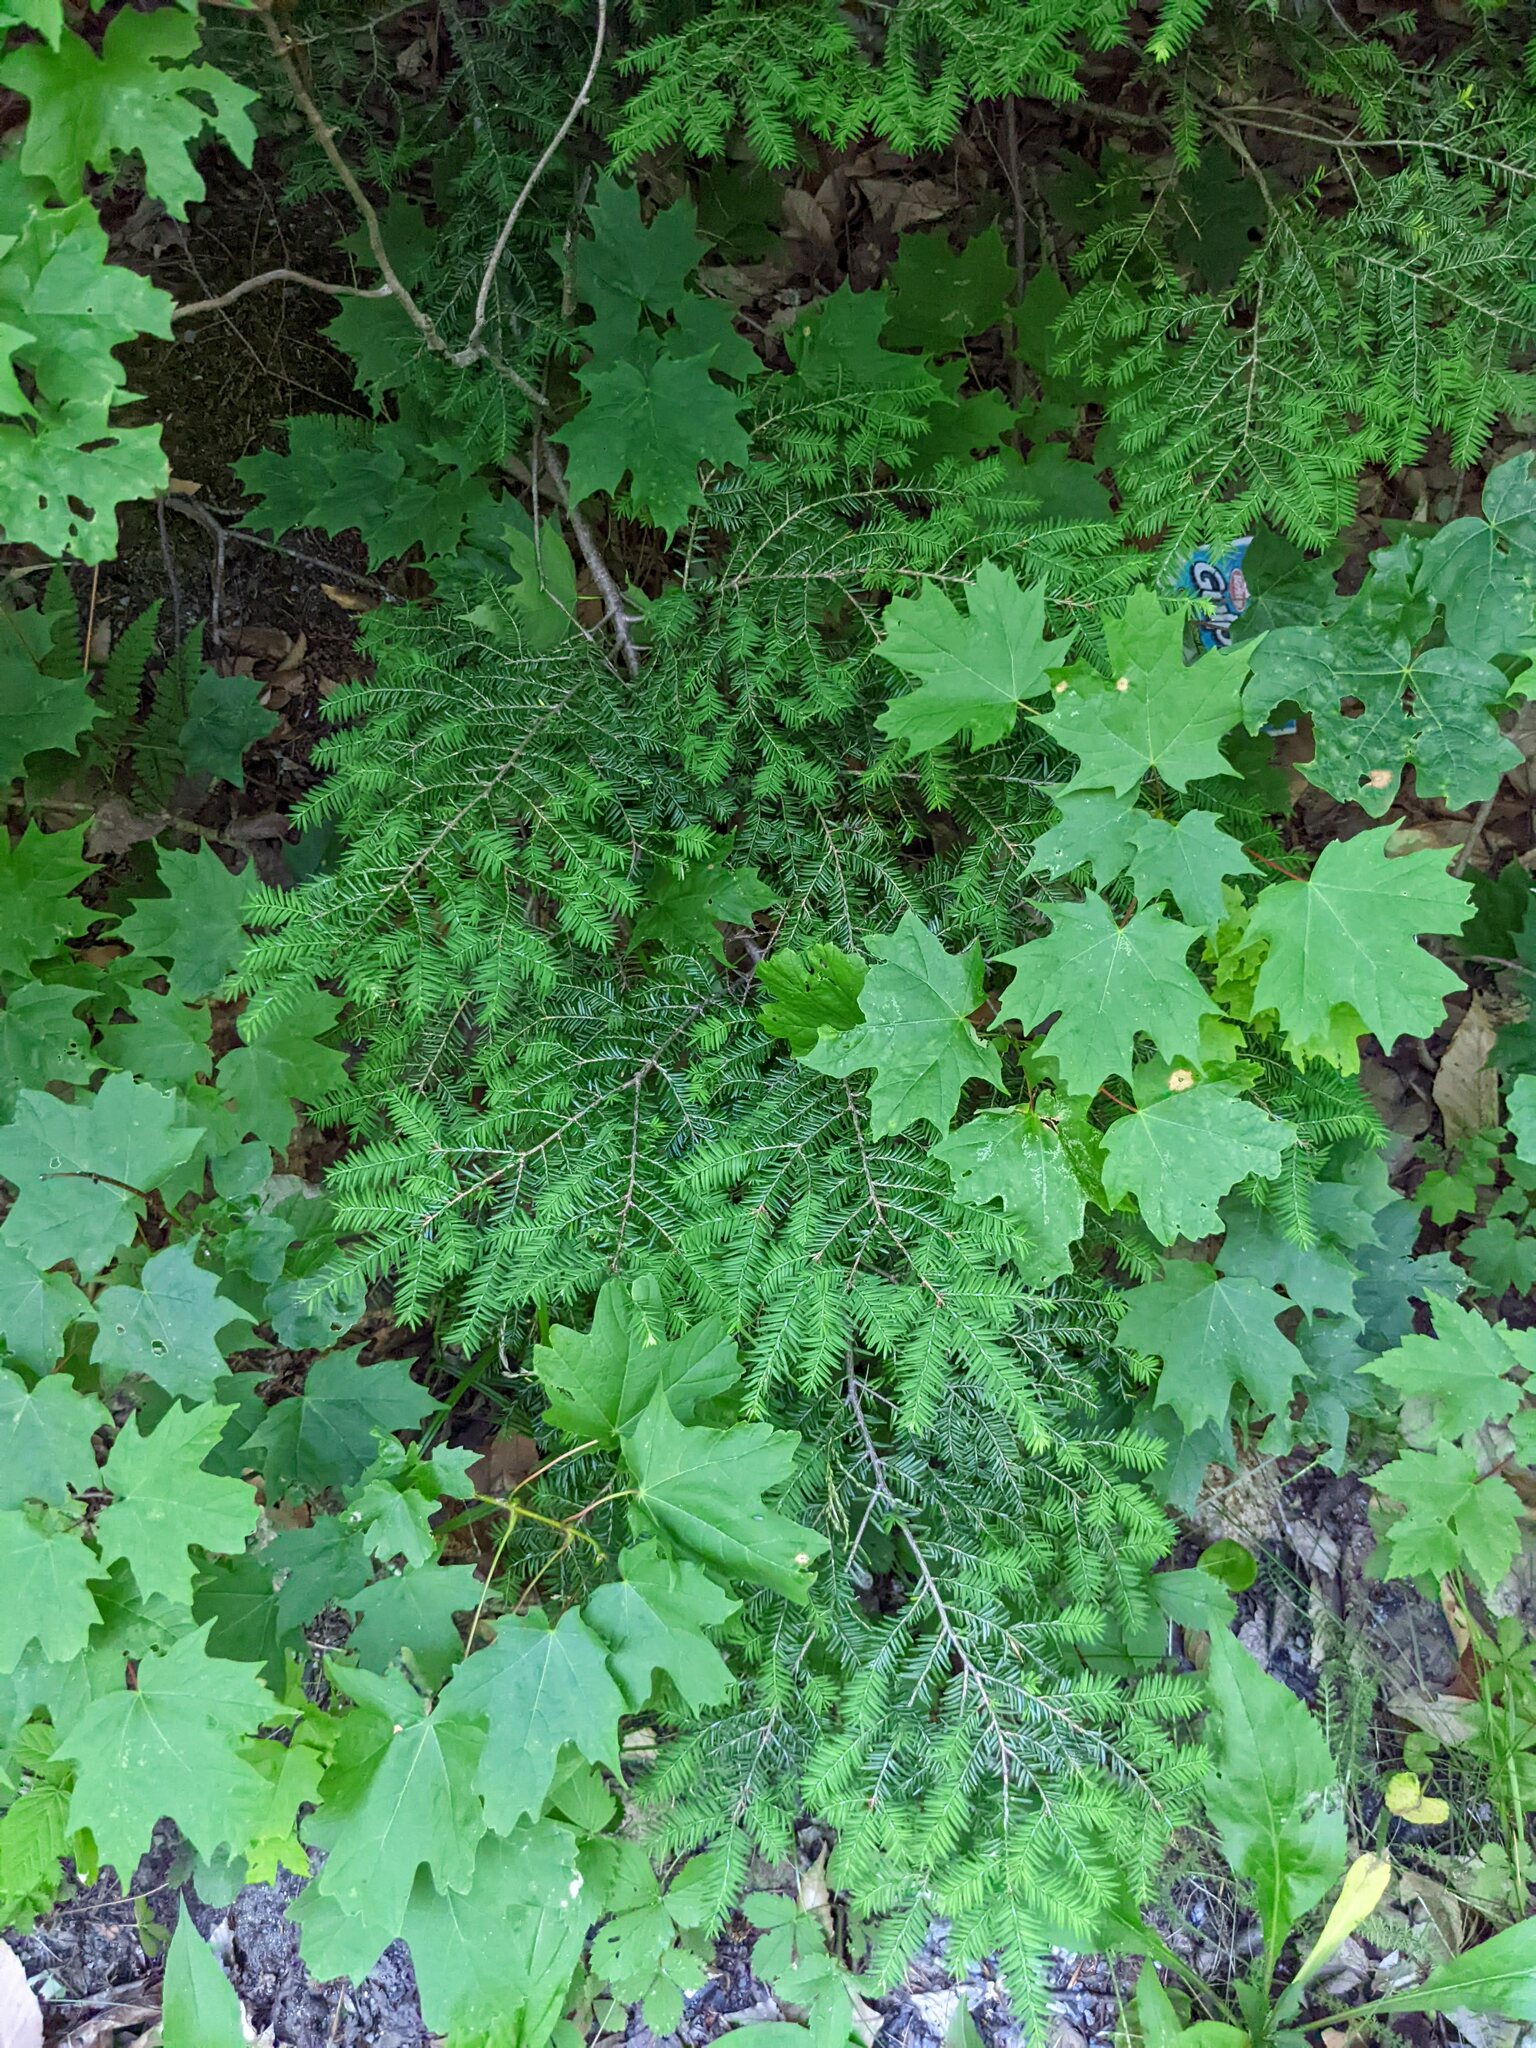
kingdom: Plantae
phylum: Tracheophyta
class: Pinopsida
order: Pinales
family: Pinaceae
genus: Tsuga
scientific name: Tsuga canadensis
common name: Eastern hemlock
